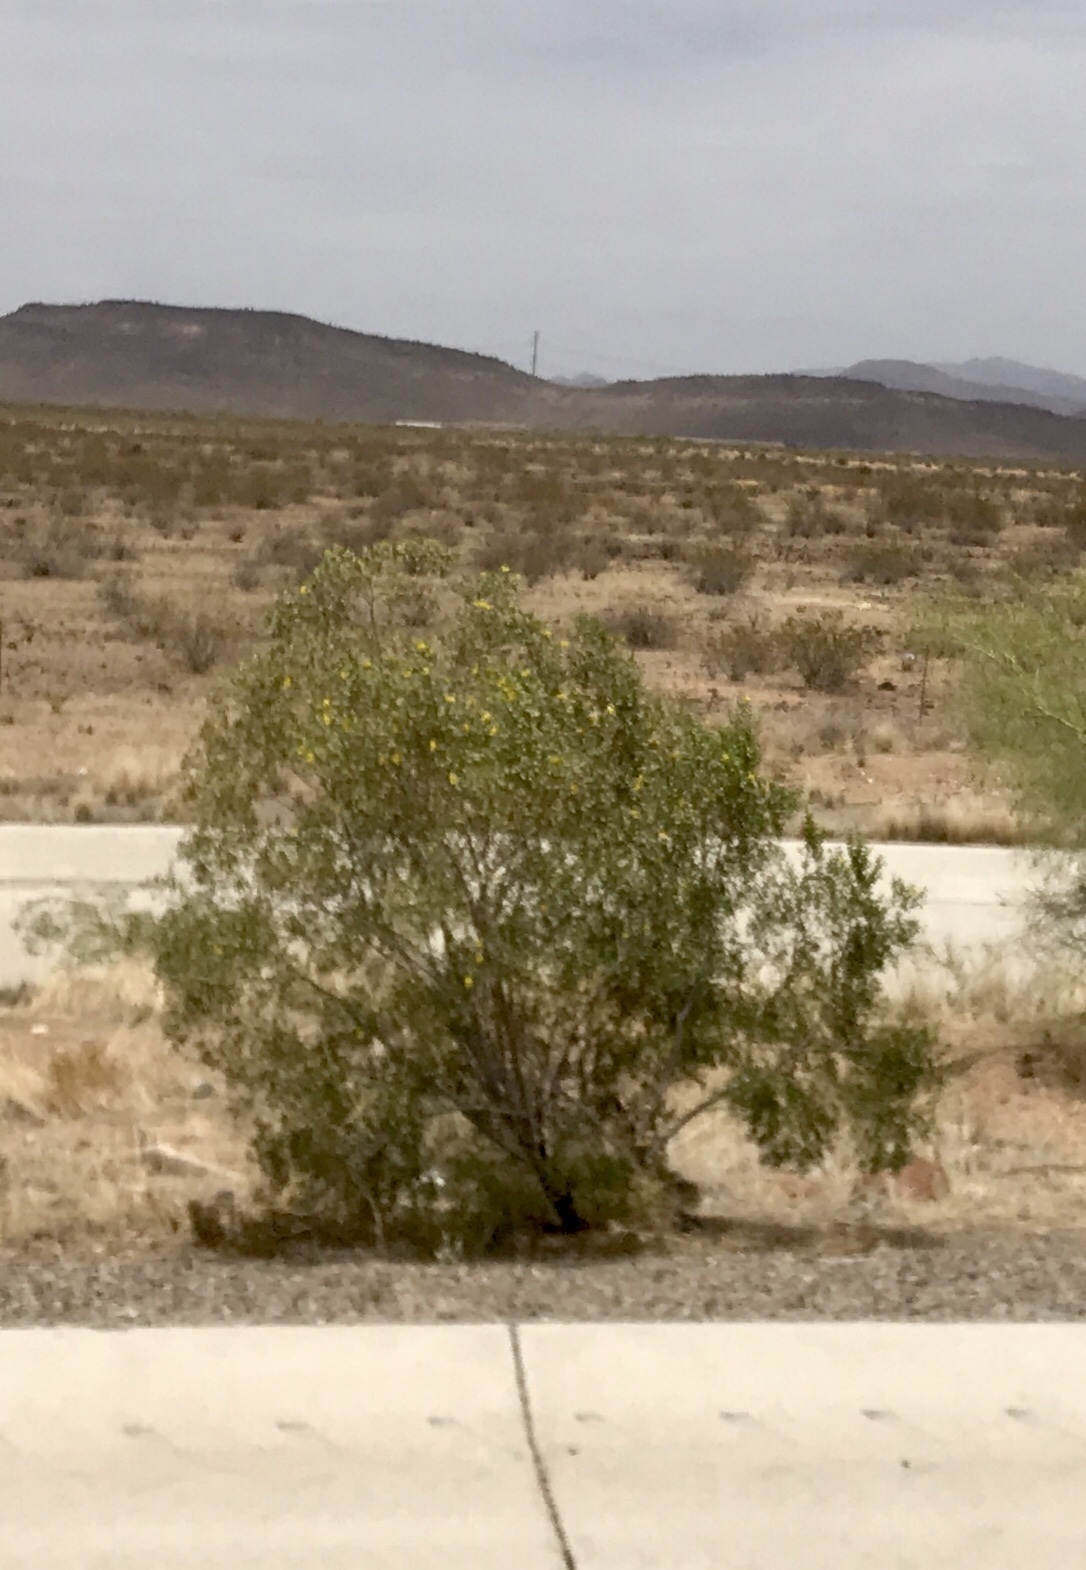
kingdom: Plantae
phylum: Tracheophyta
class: Magnoliopsida
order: Zygophyllales
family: Zygophyllaceae
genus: Larrea
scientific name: Larrea tridentata
